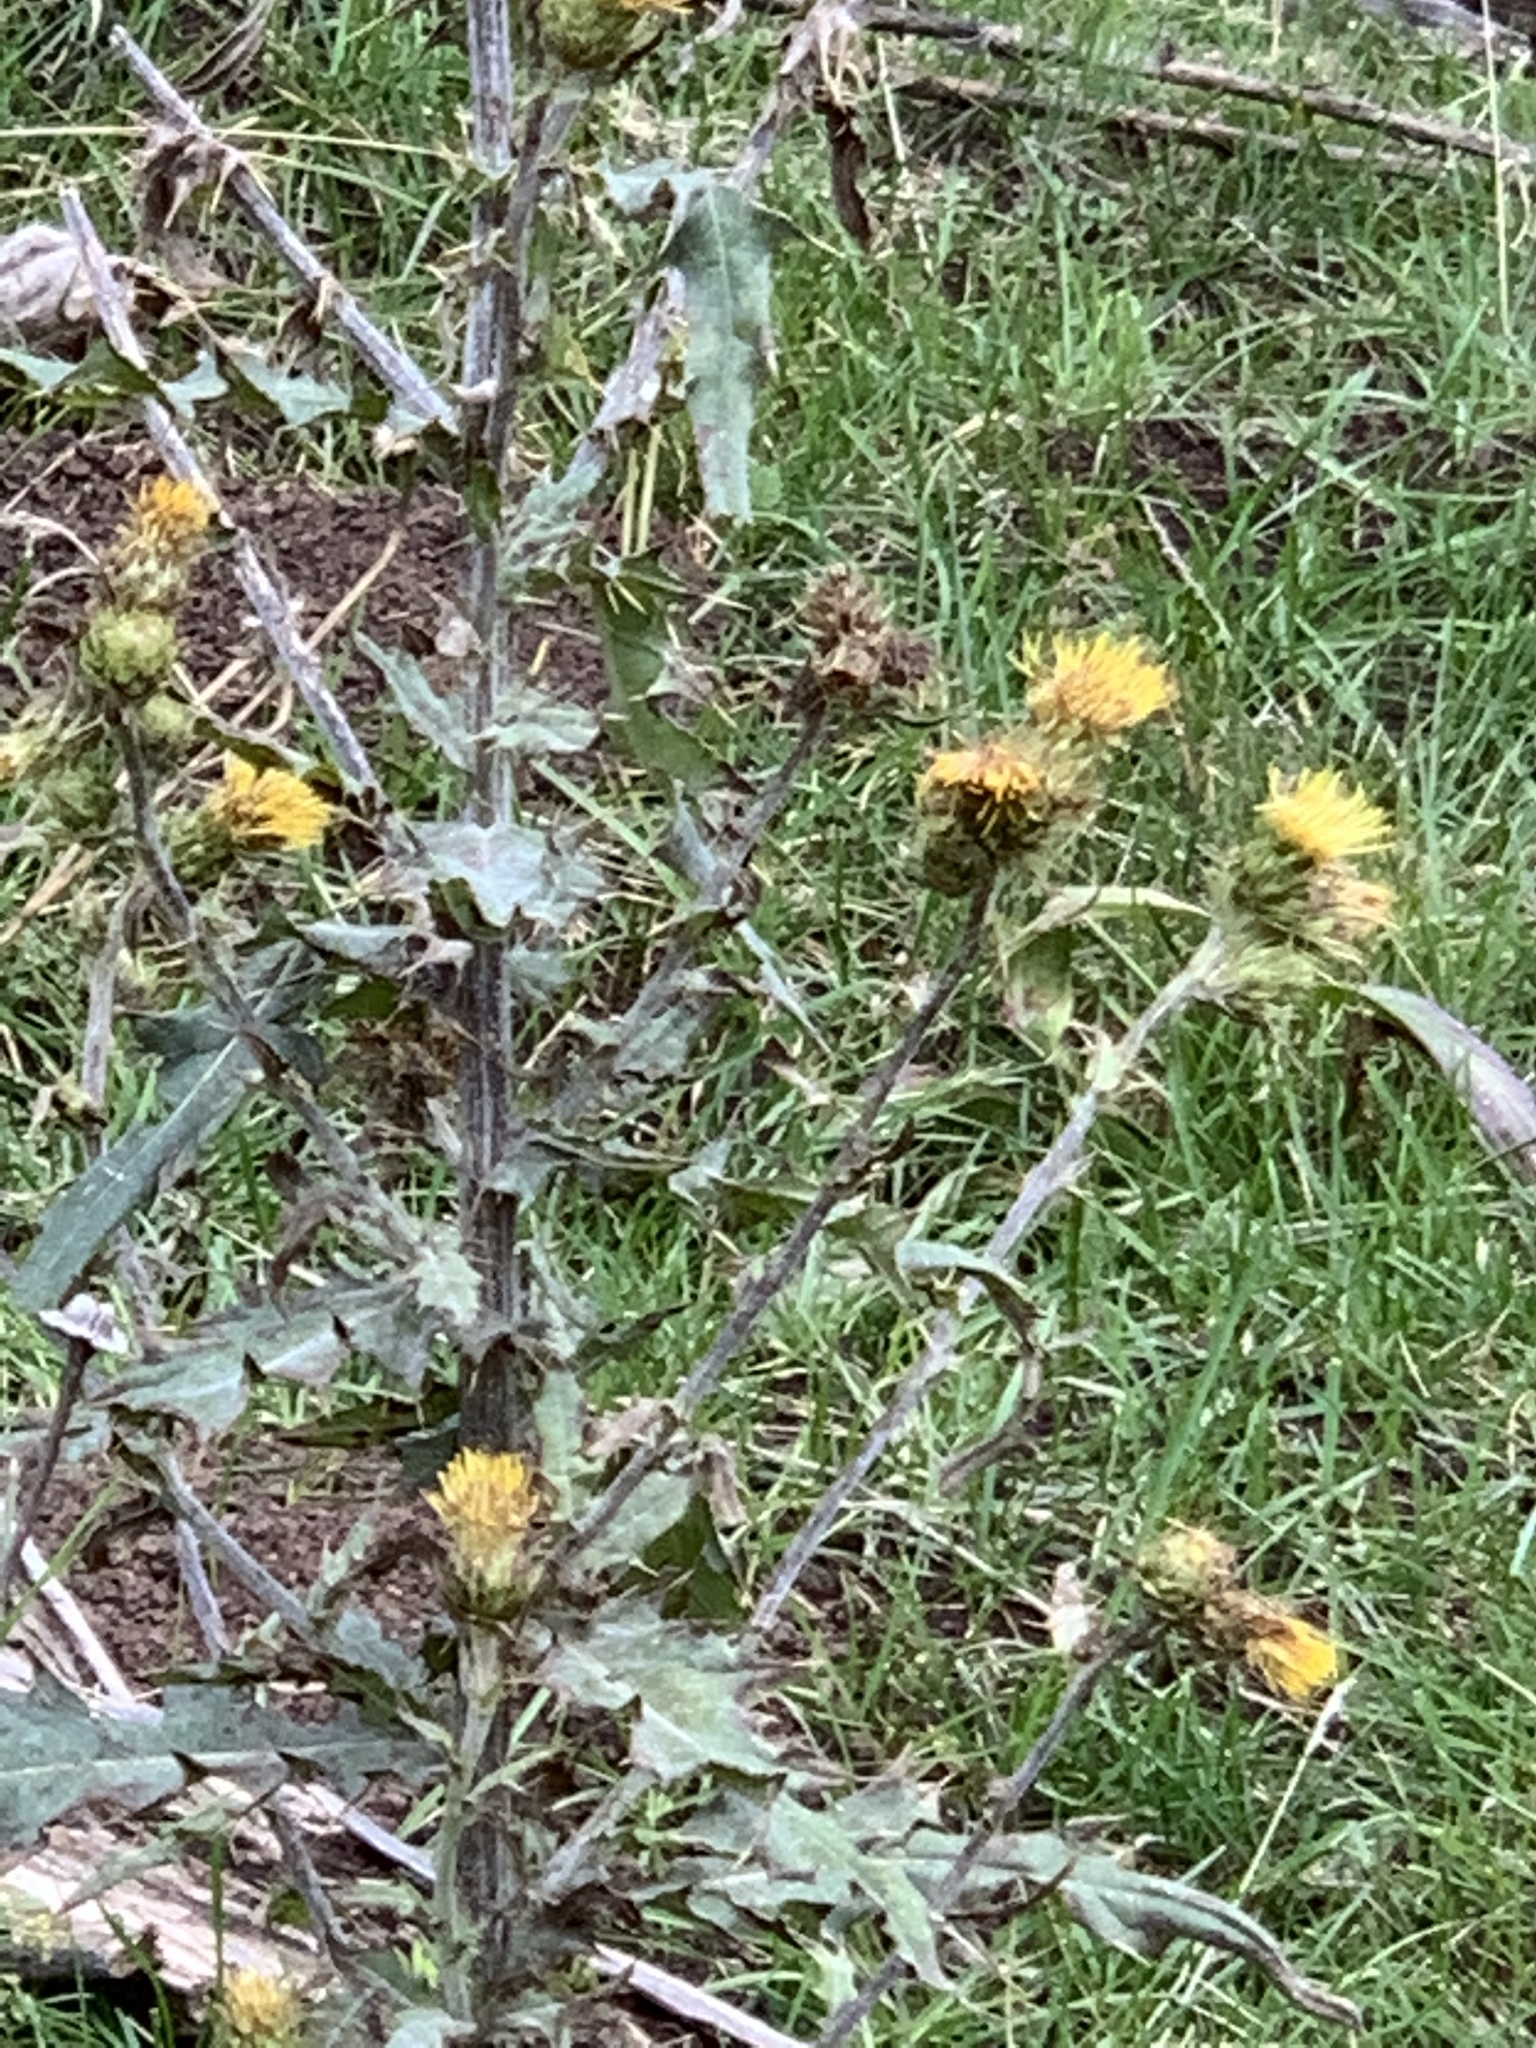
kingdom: Plantae
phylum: Tracheophyta
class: Magnoliopsida
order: Asterales
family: Asteraceae
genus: Cirsium
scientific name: Cirsium parryi
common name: Parry's thistle
